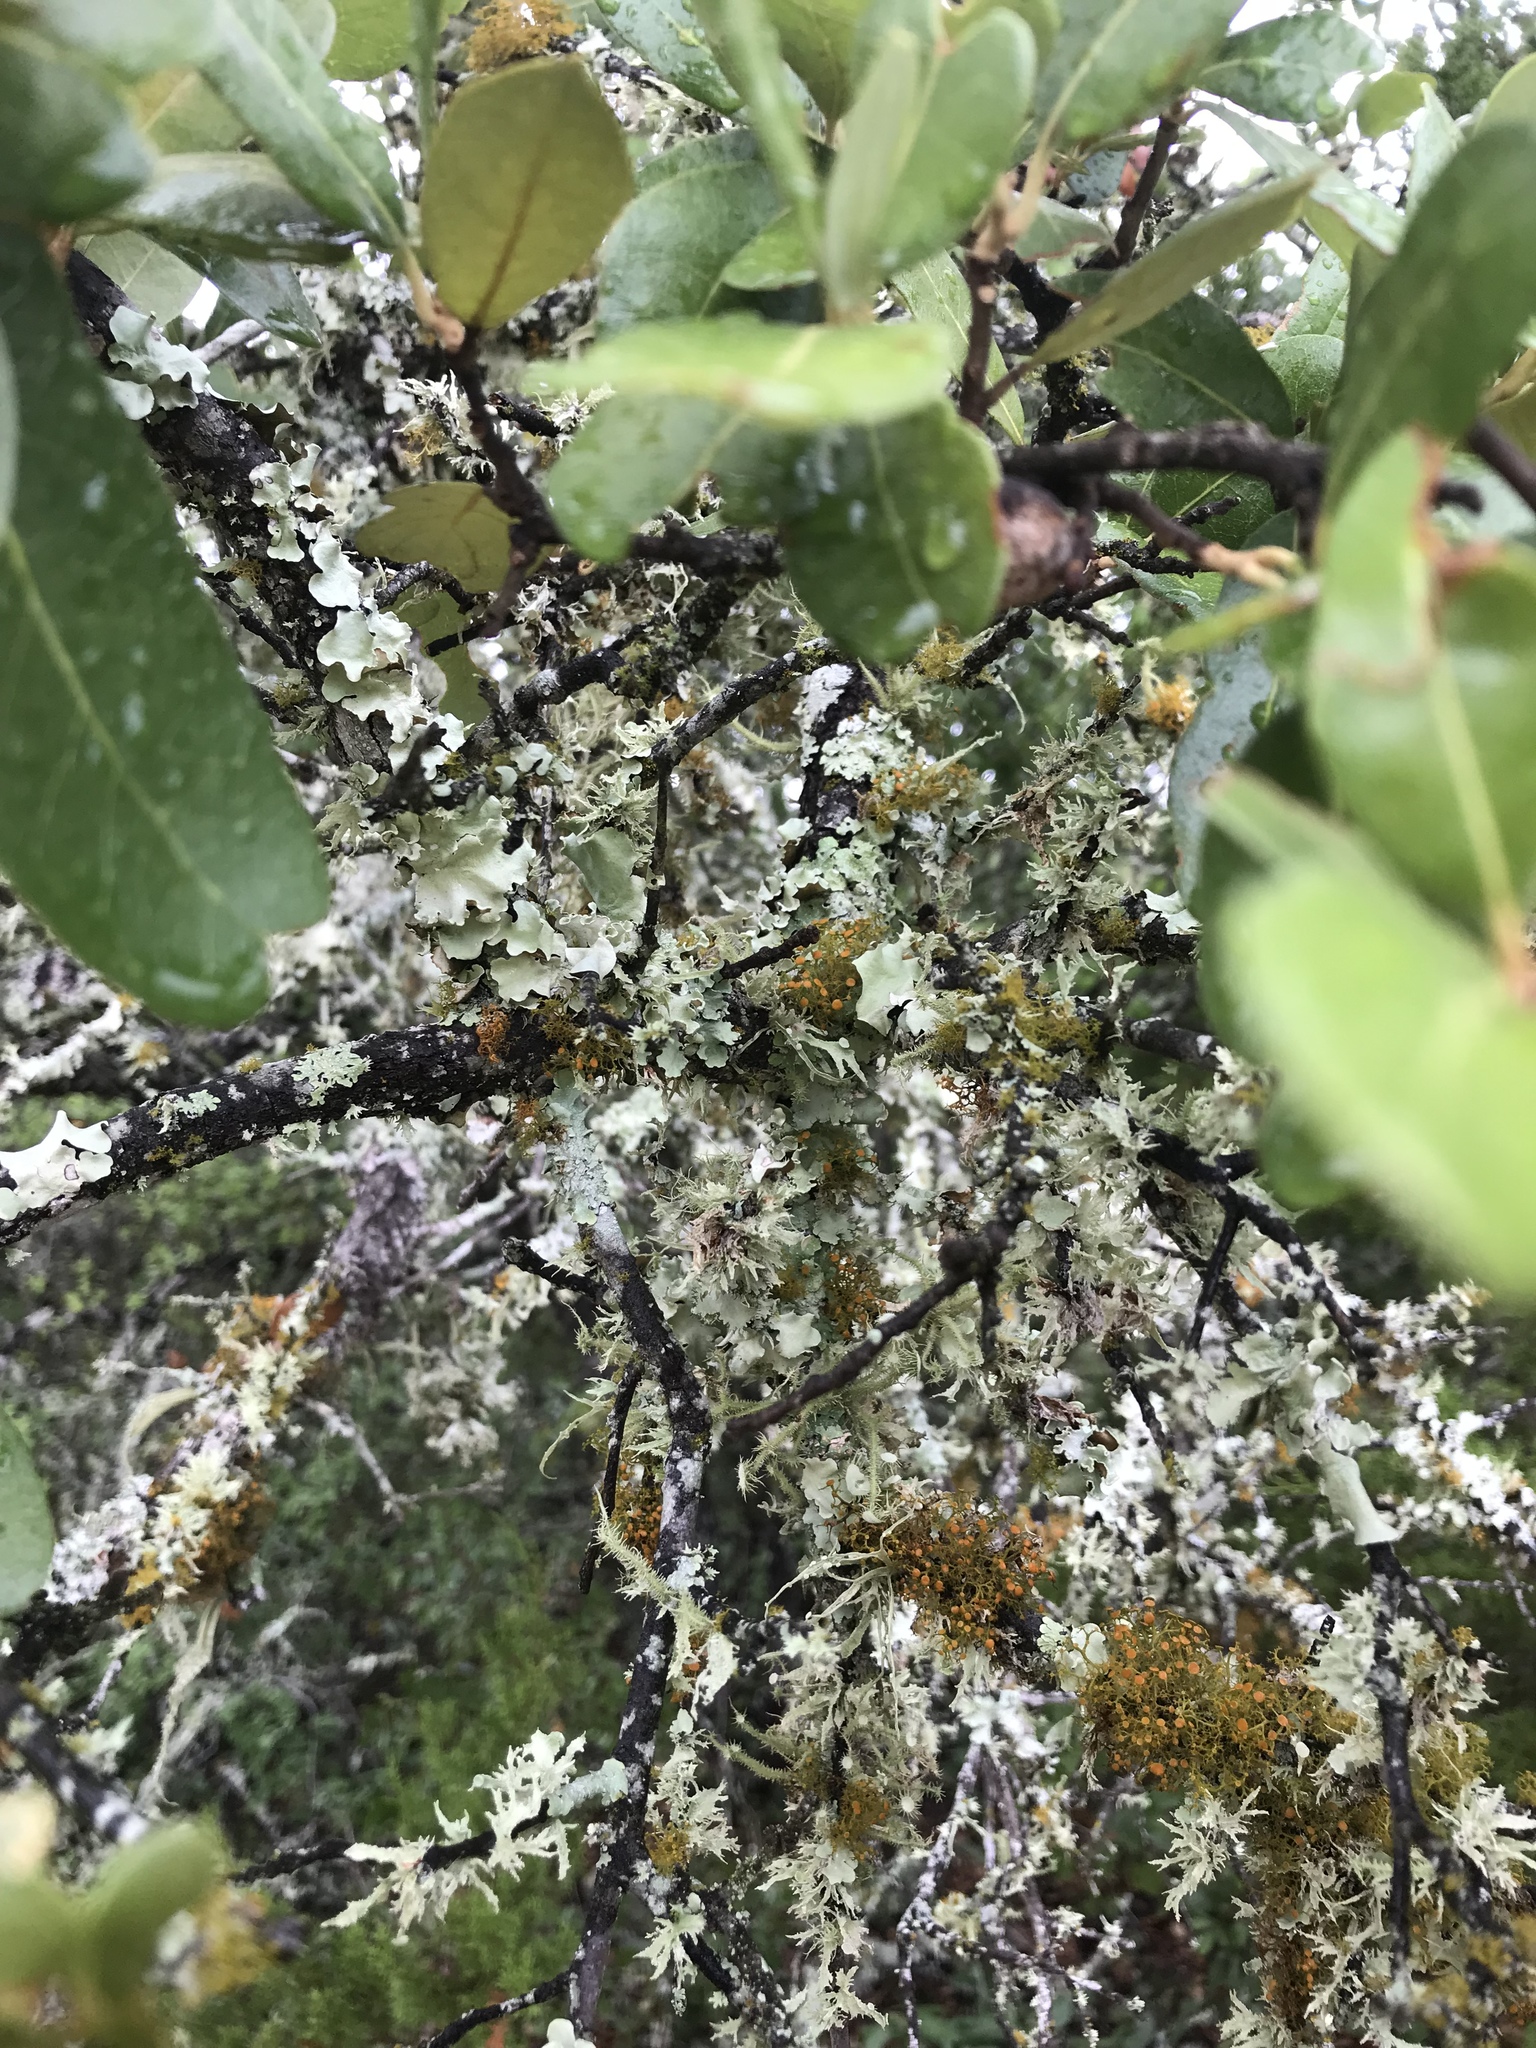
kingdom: Plantae
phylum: Tracheophyta
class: Magnoliopsida
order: Fagales
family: Fagaceae
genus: Quercus
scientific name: Quercus fusiformis
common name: Texas live oak
